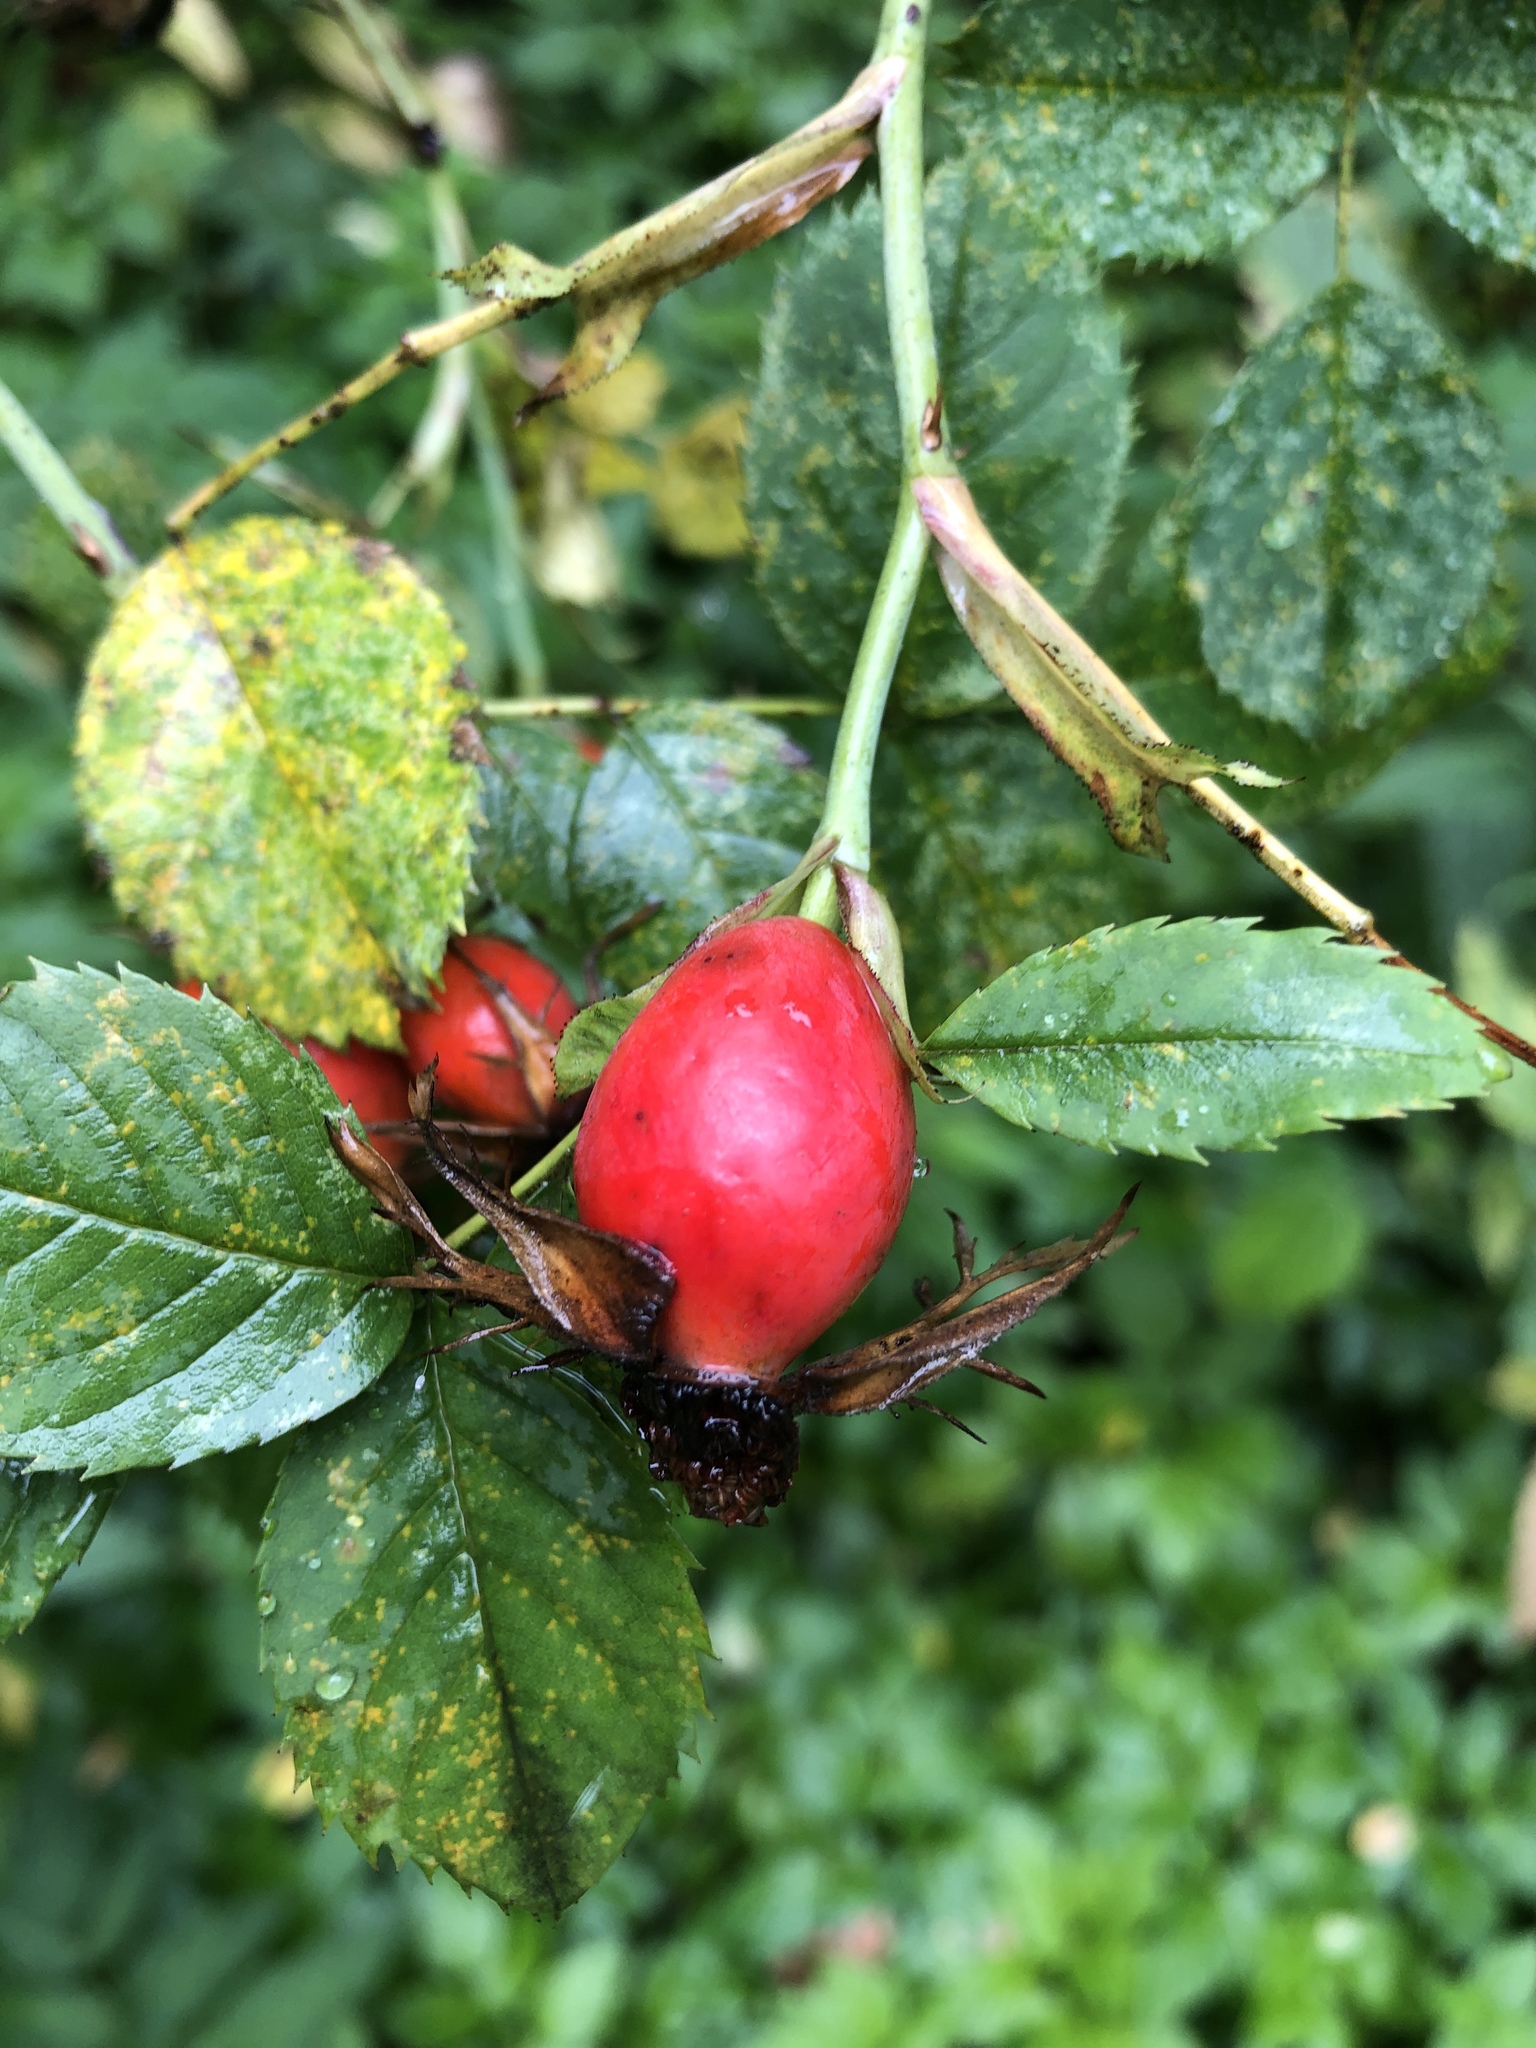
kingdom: Plantae
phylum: Tracheophyta
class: Magnoliopsida
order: Rosales
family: Rosaceae
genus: Rosa
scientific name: Rosa canina
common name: Dog rose
